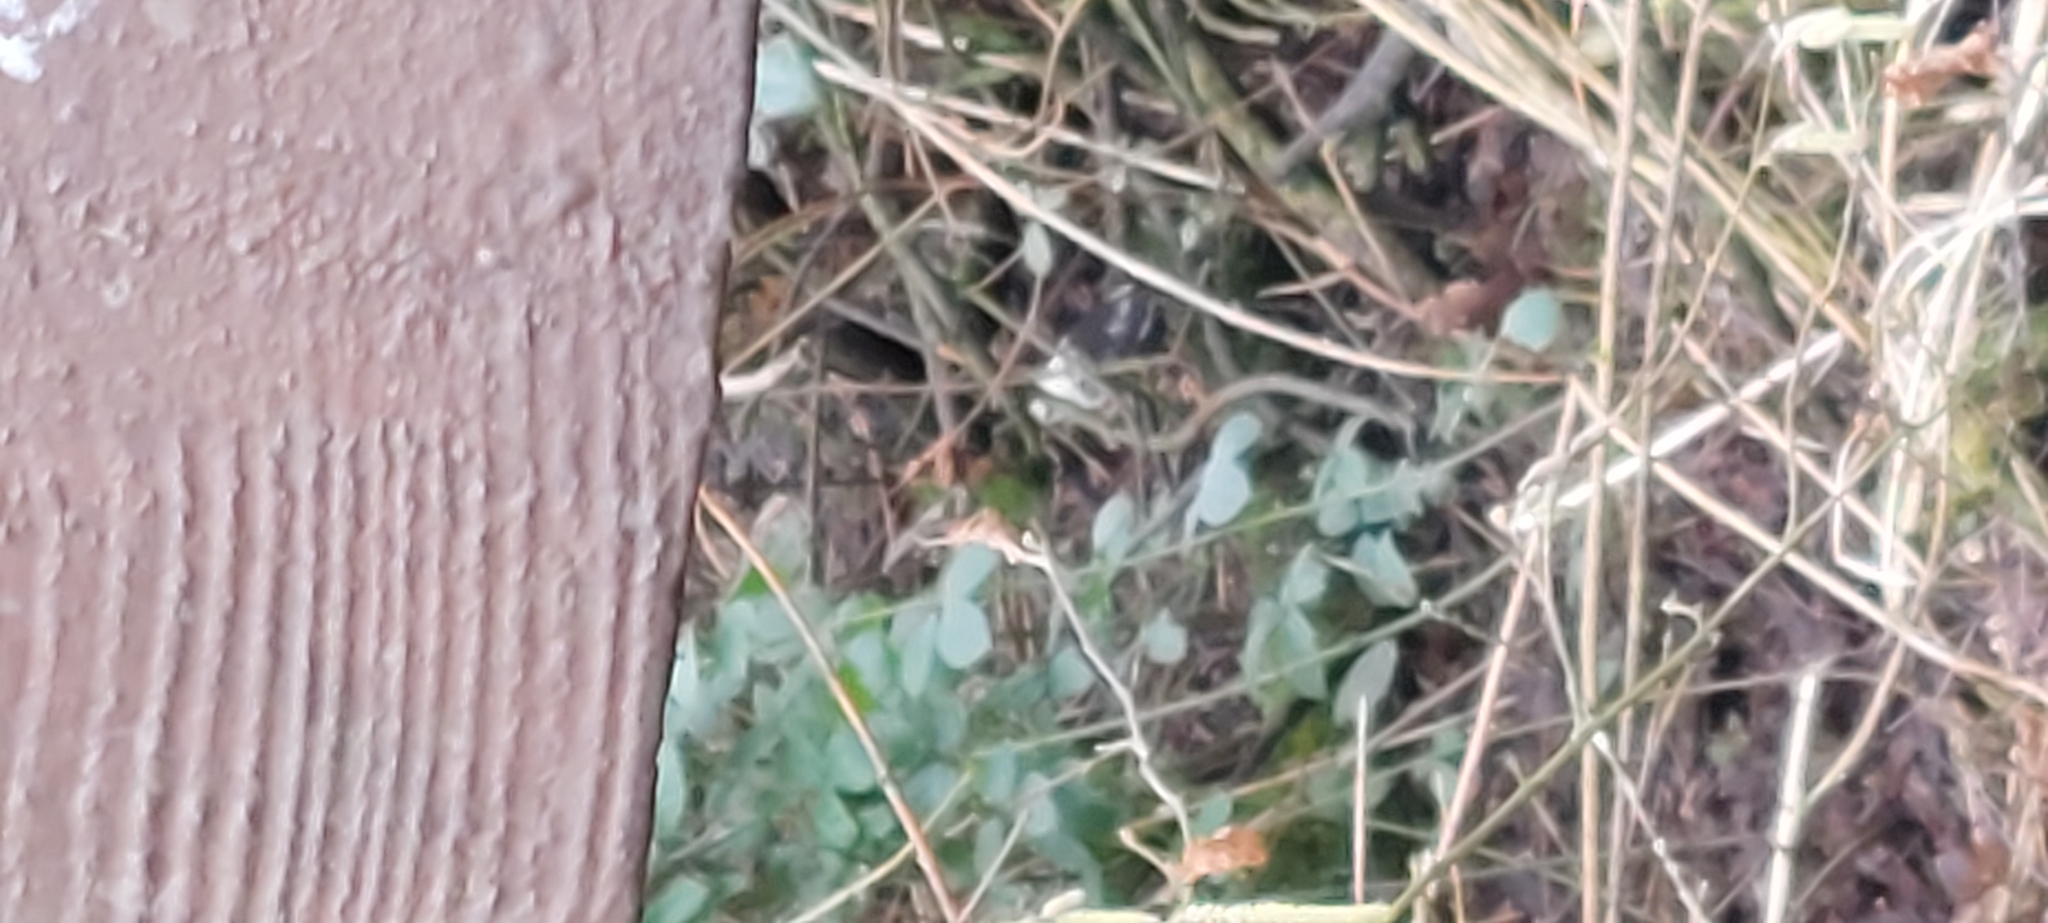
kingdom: Animalia
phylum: Chordata
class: Aves
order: Passeriformes
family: Turdidae
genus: Turdus
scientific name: Turdus merula
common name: Common blackbird
